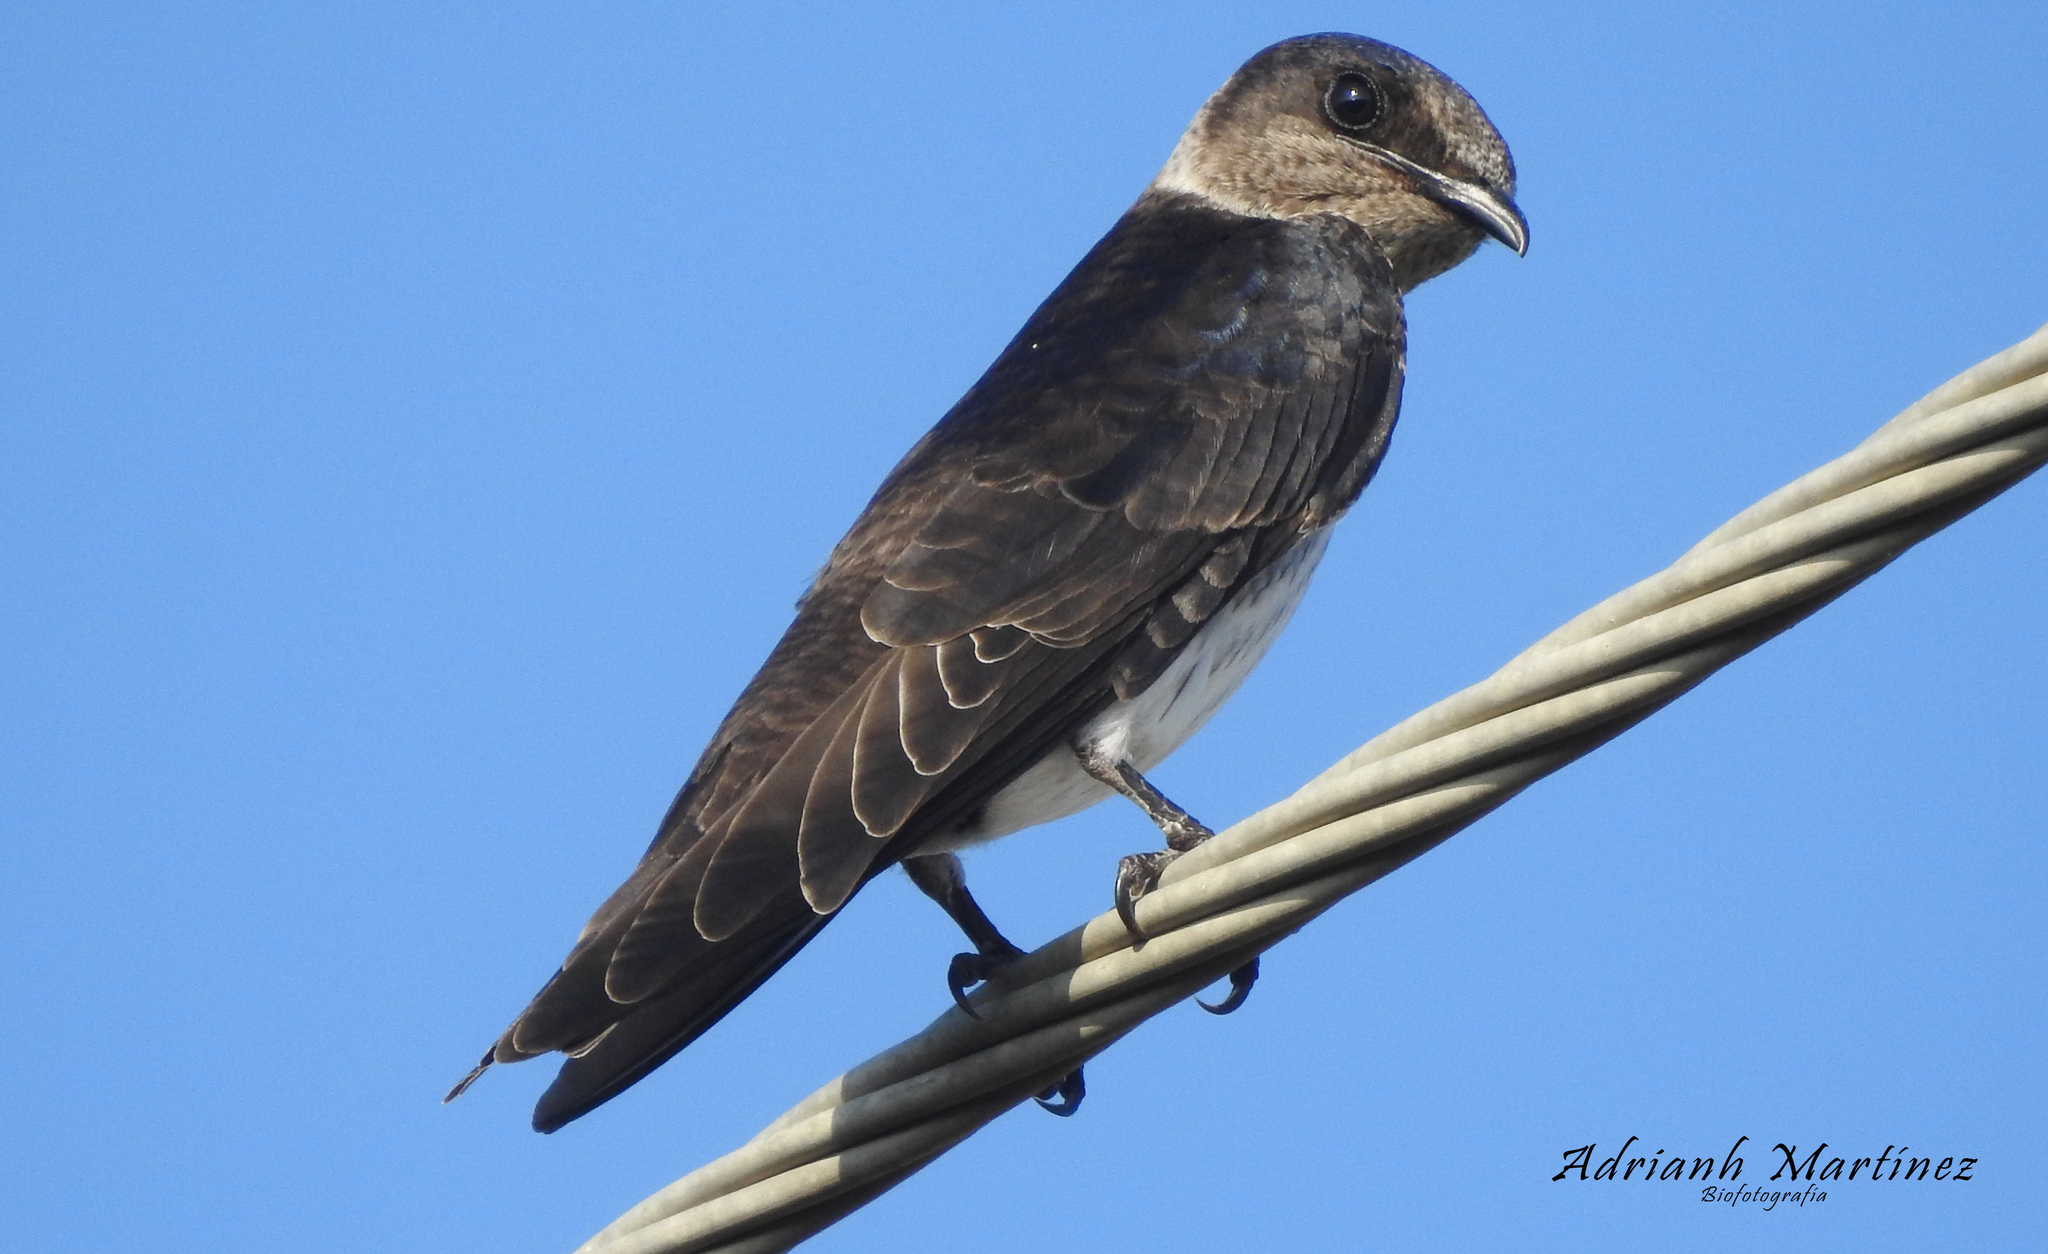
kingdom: Animalia
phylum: Chordata
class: Aves
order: Passeriformes
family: Hirundinidae
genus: Progne
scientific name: Progne subis
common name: Purple martin
